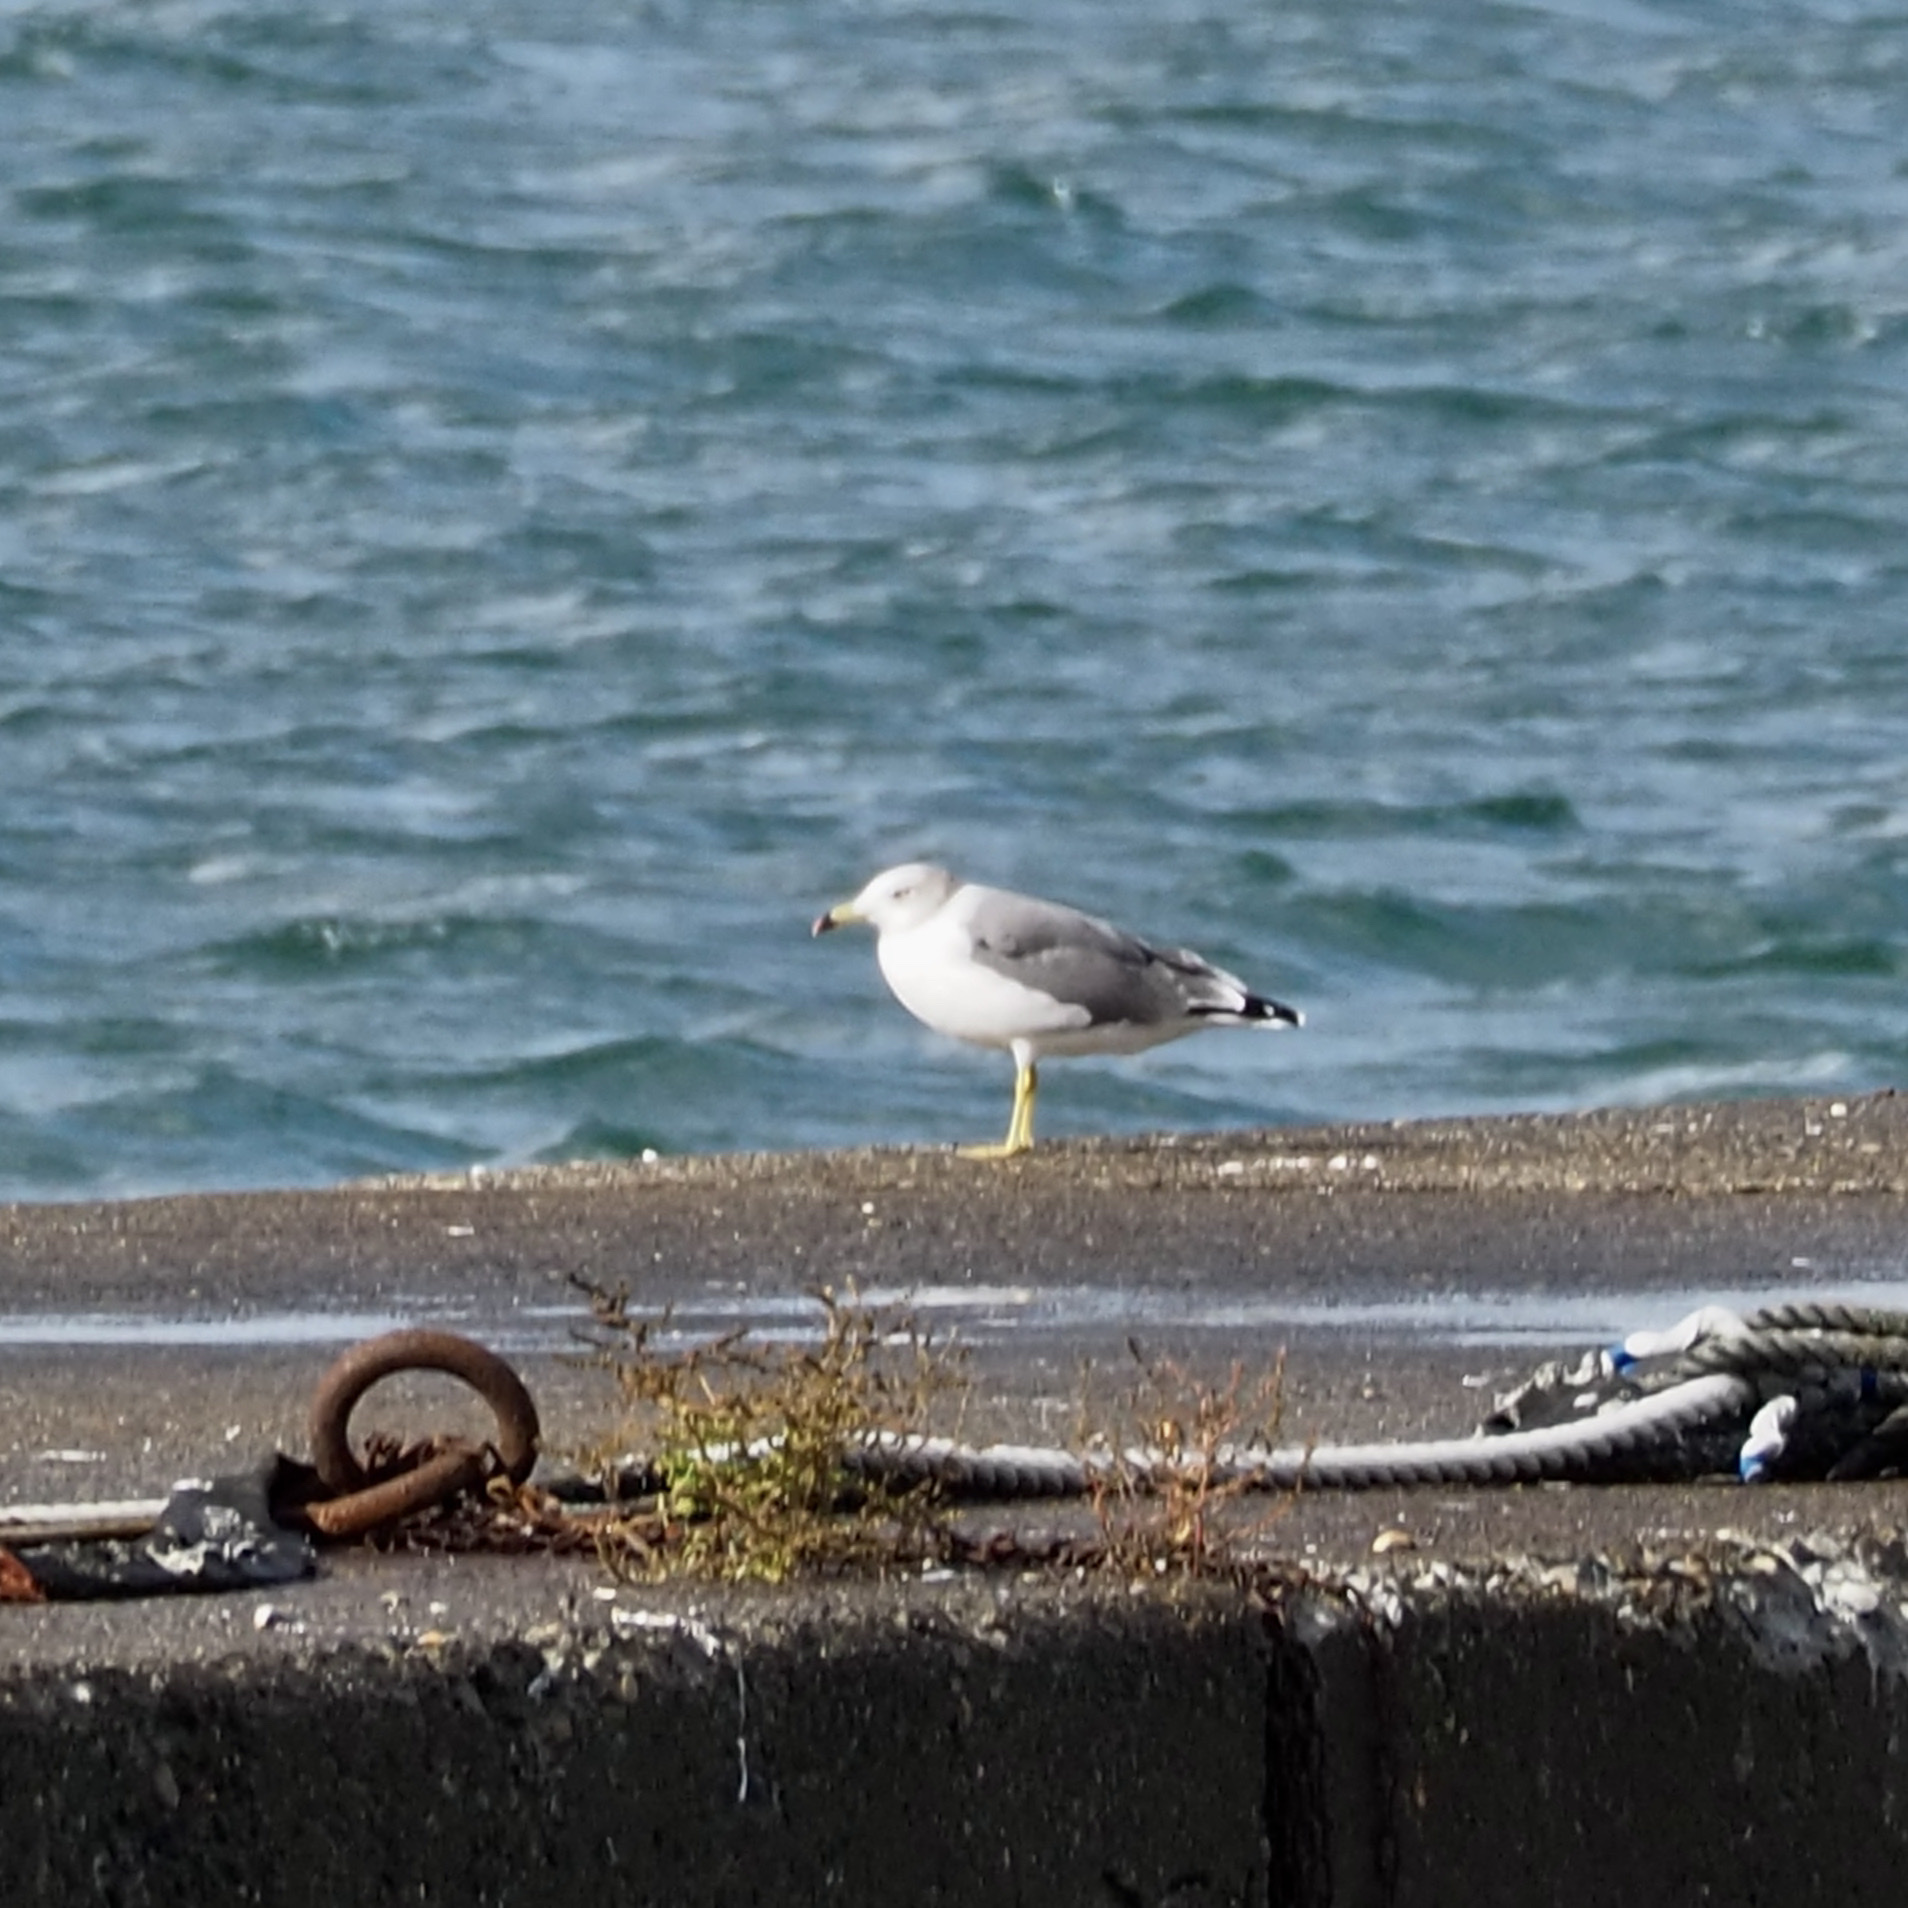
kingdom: Animalia
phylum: Chordata
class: Aves
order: Charadriiformes
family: Laridae
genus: Larus
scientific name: Larus crassirostris
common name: Black-tailed gull
